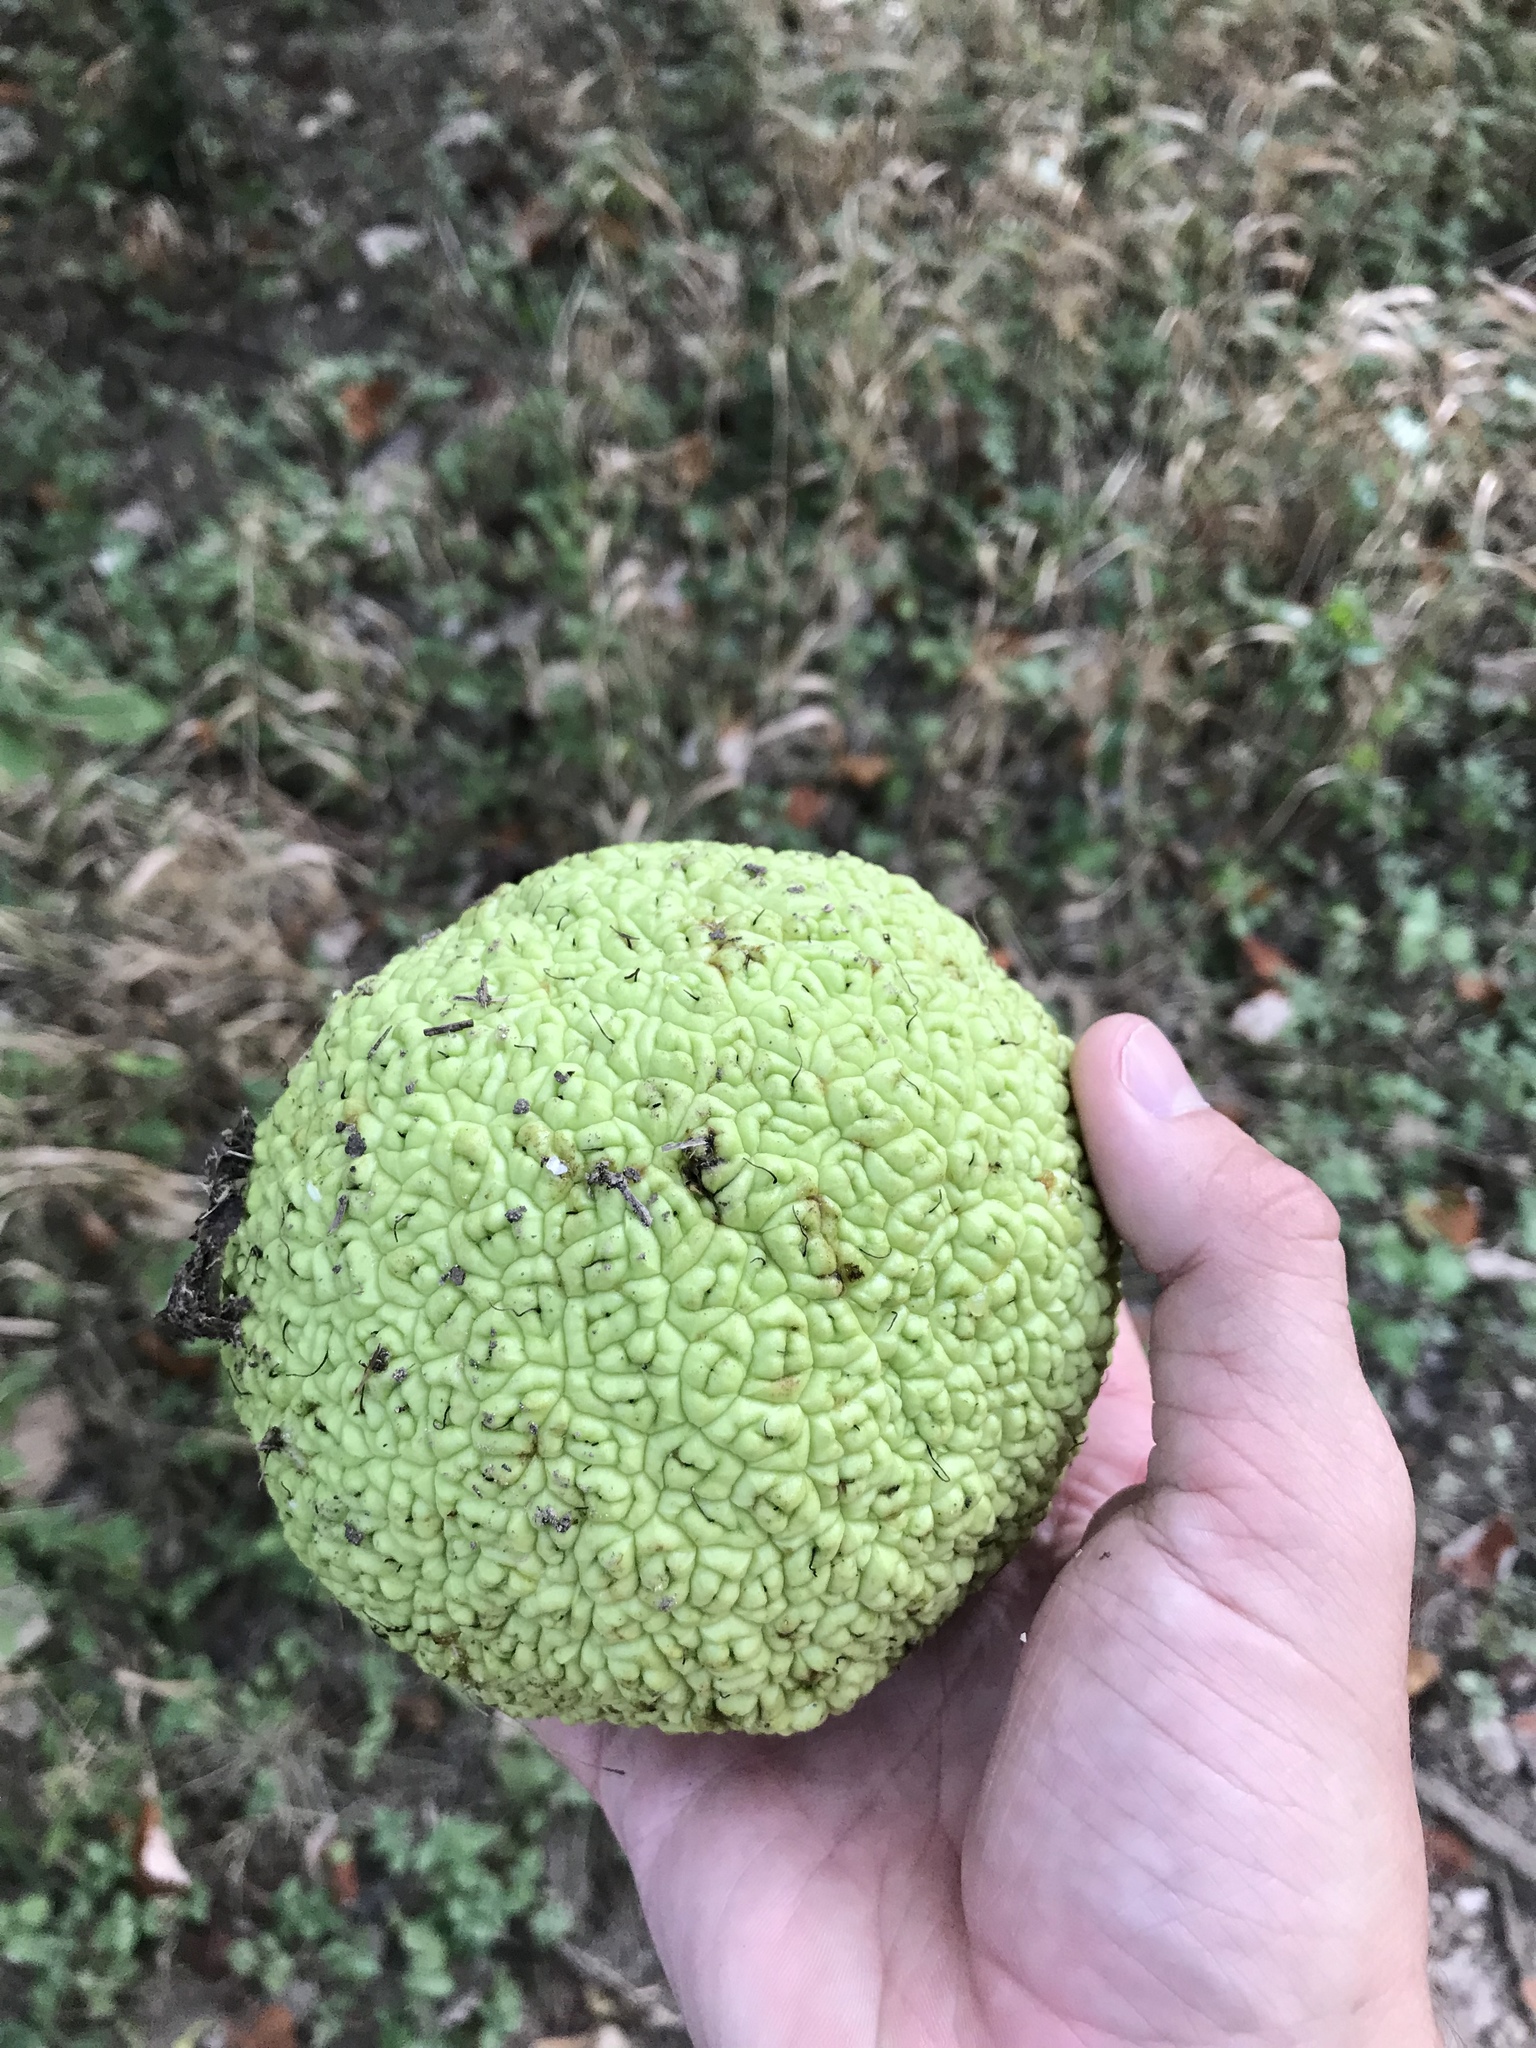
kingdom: Plantae
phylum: Tracheophyta
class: Magnoliopsida
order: Rosales
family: Moraceae
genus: Maclura
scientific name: Maclura pomifera
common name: Osage-orange
